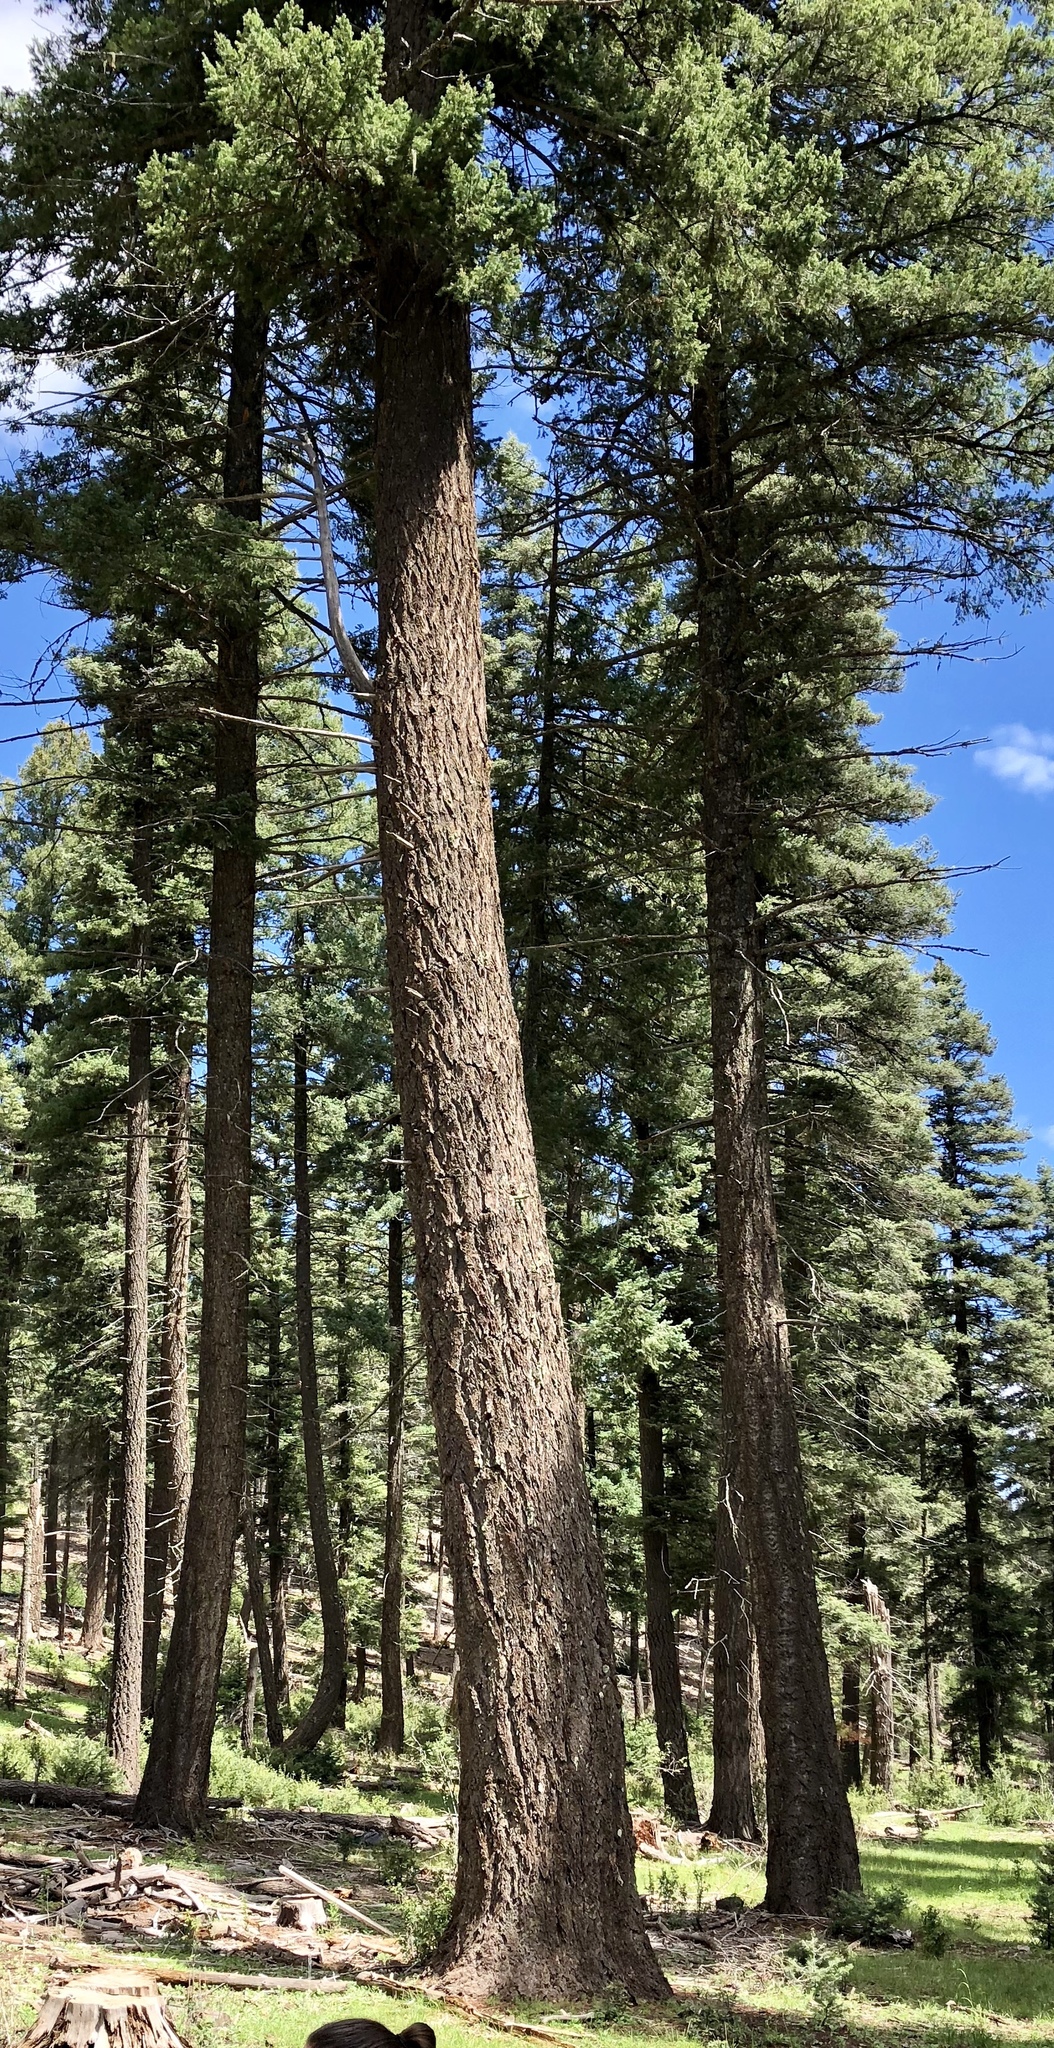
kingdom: Plantae
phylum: Tracheophyta
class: Pinopsida
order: Pinales
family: Pinaceae
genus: Pseudotsuga
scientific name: Pseudotsuga menziesii
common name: Douglas fir
